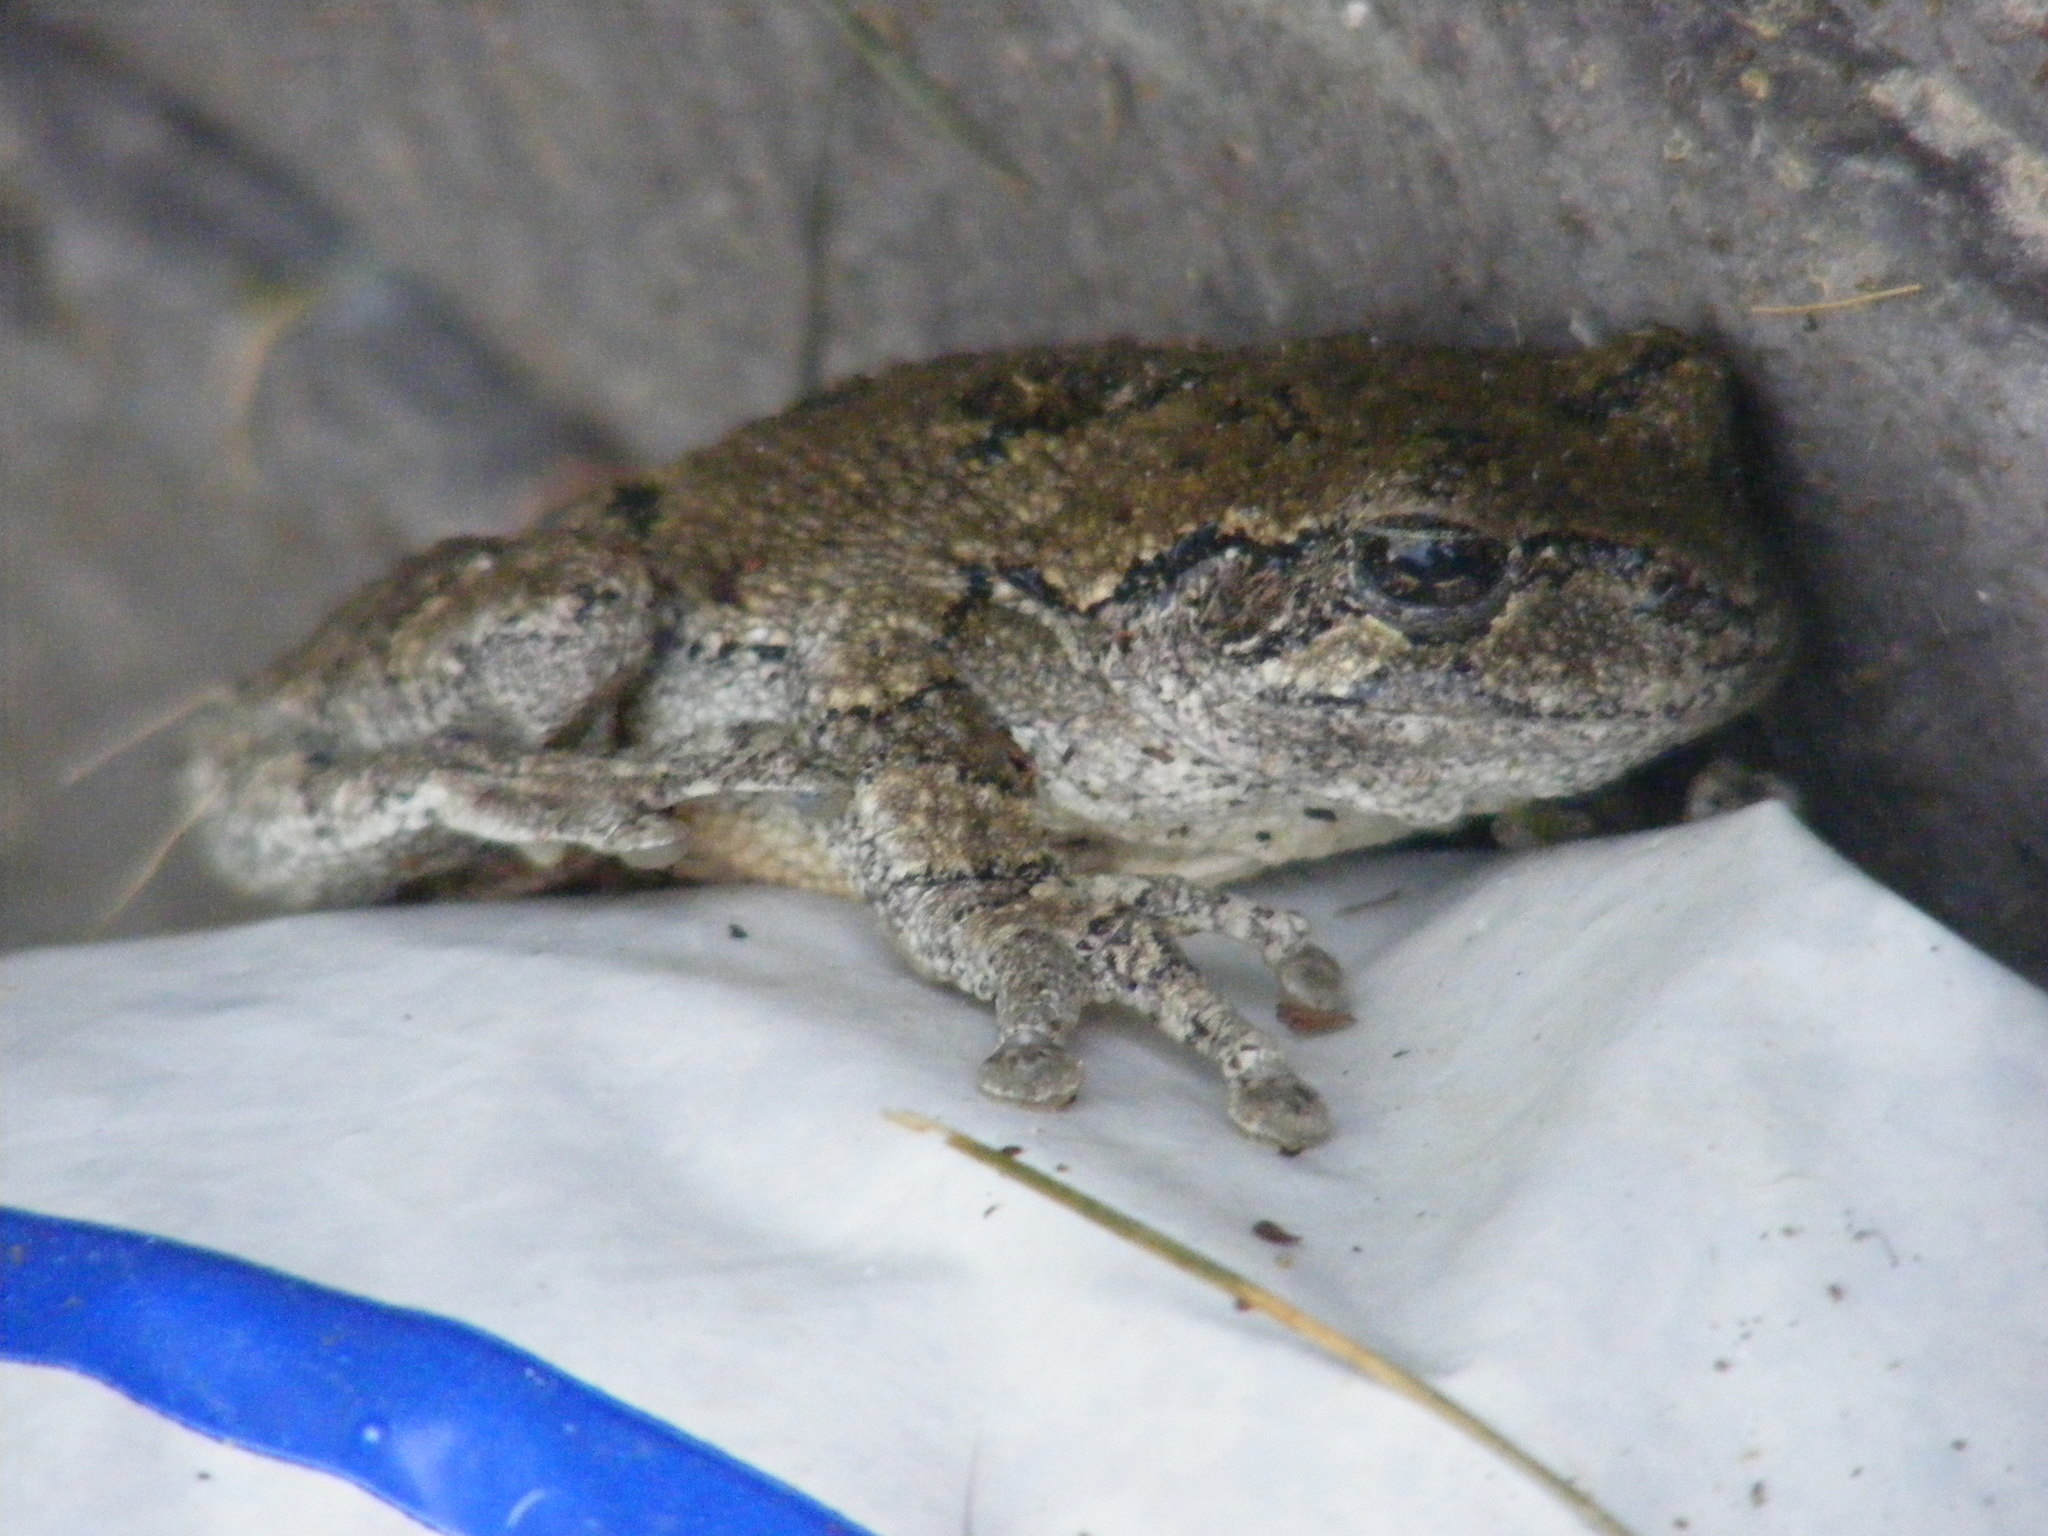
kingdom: Animalia
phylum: Chordata
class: Amphibia
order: Anura
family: Hylidae
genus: Dryophytes
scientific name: Dryophytes versicolor
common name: Gray treefrog
